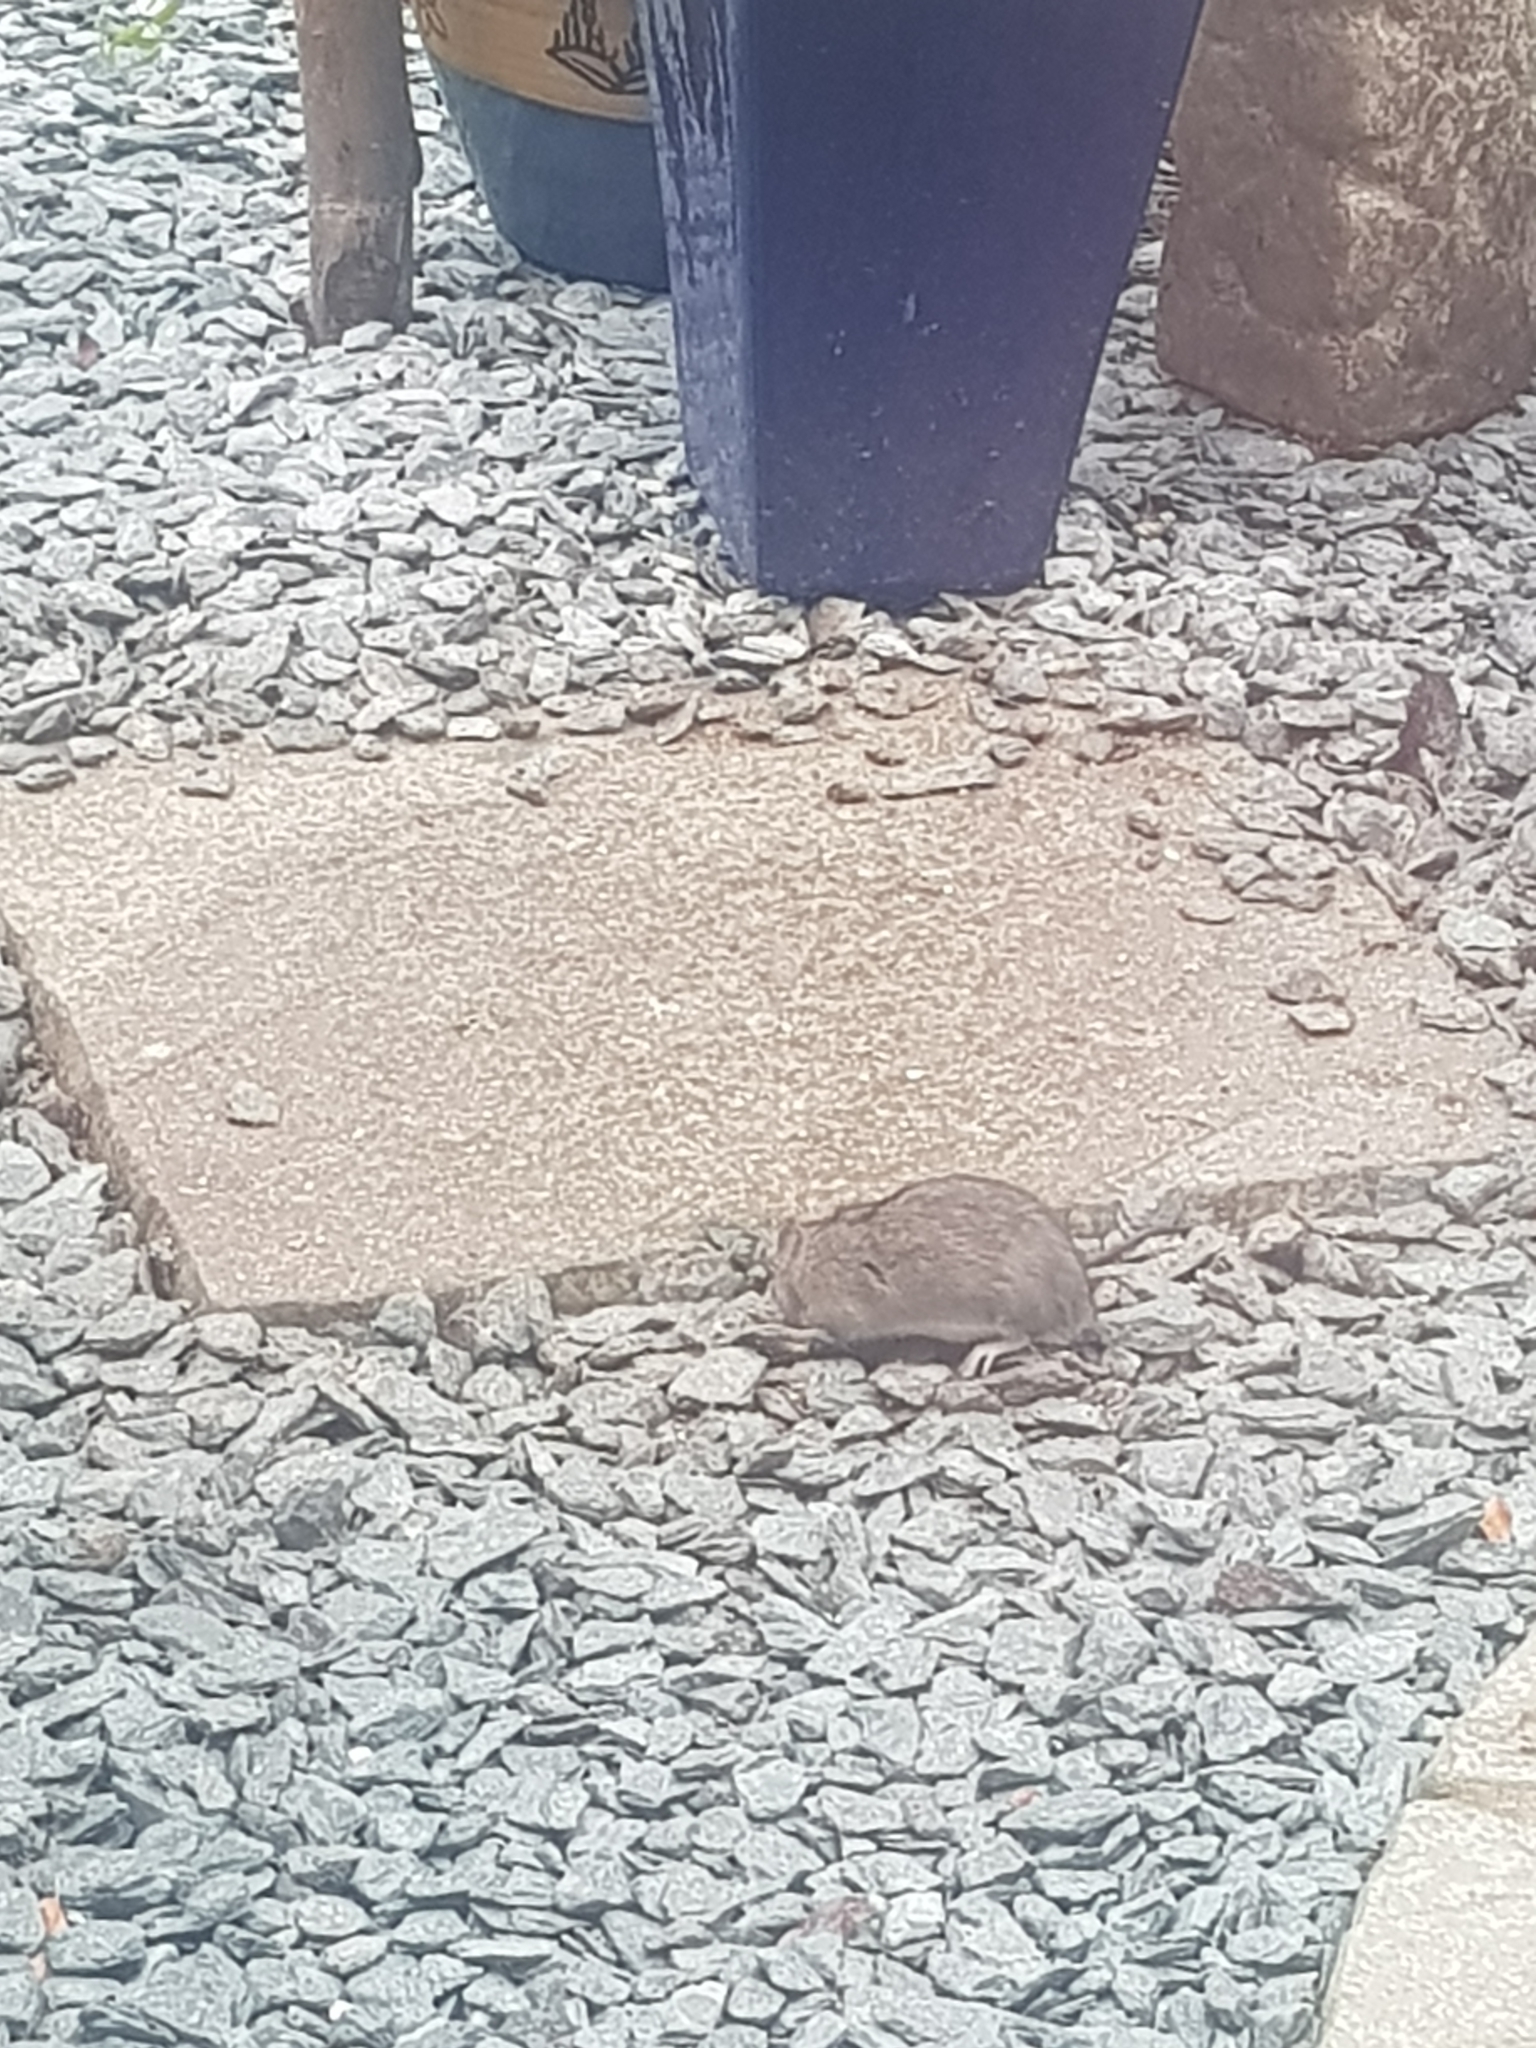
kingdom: Animalia
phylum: Chordata
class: Mammalia
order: Rodentia
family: Muridae
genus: Rattus
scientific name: Rattus norvegicus
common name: Brown rat
